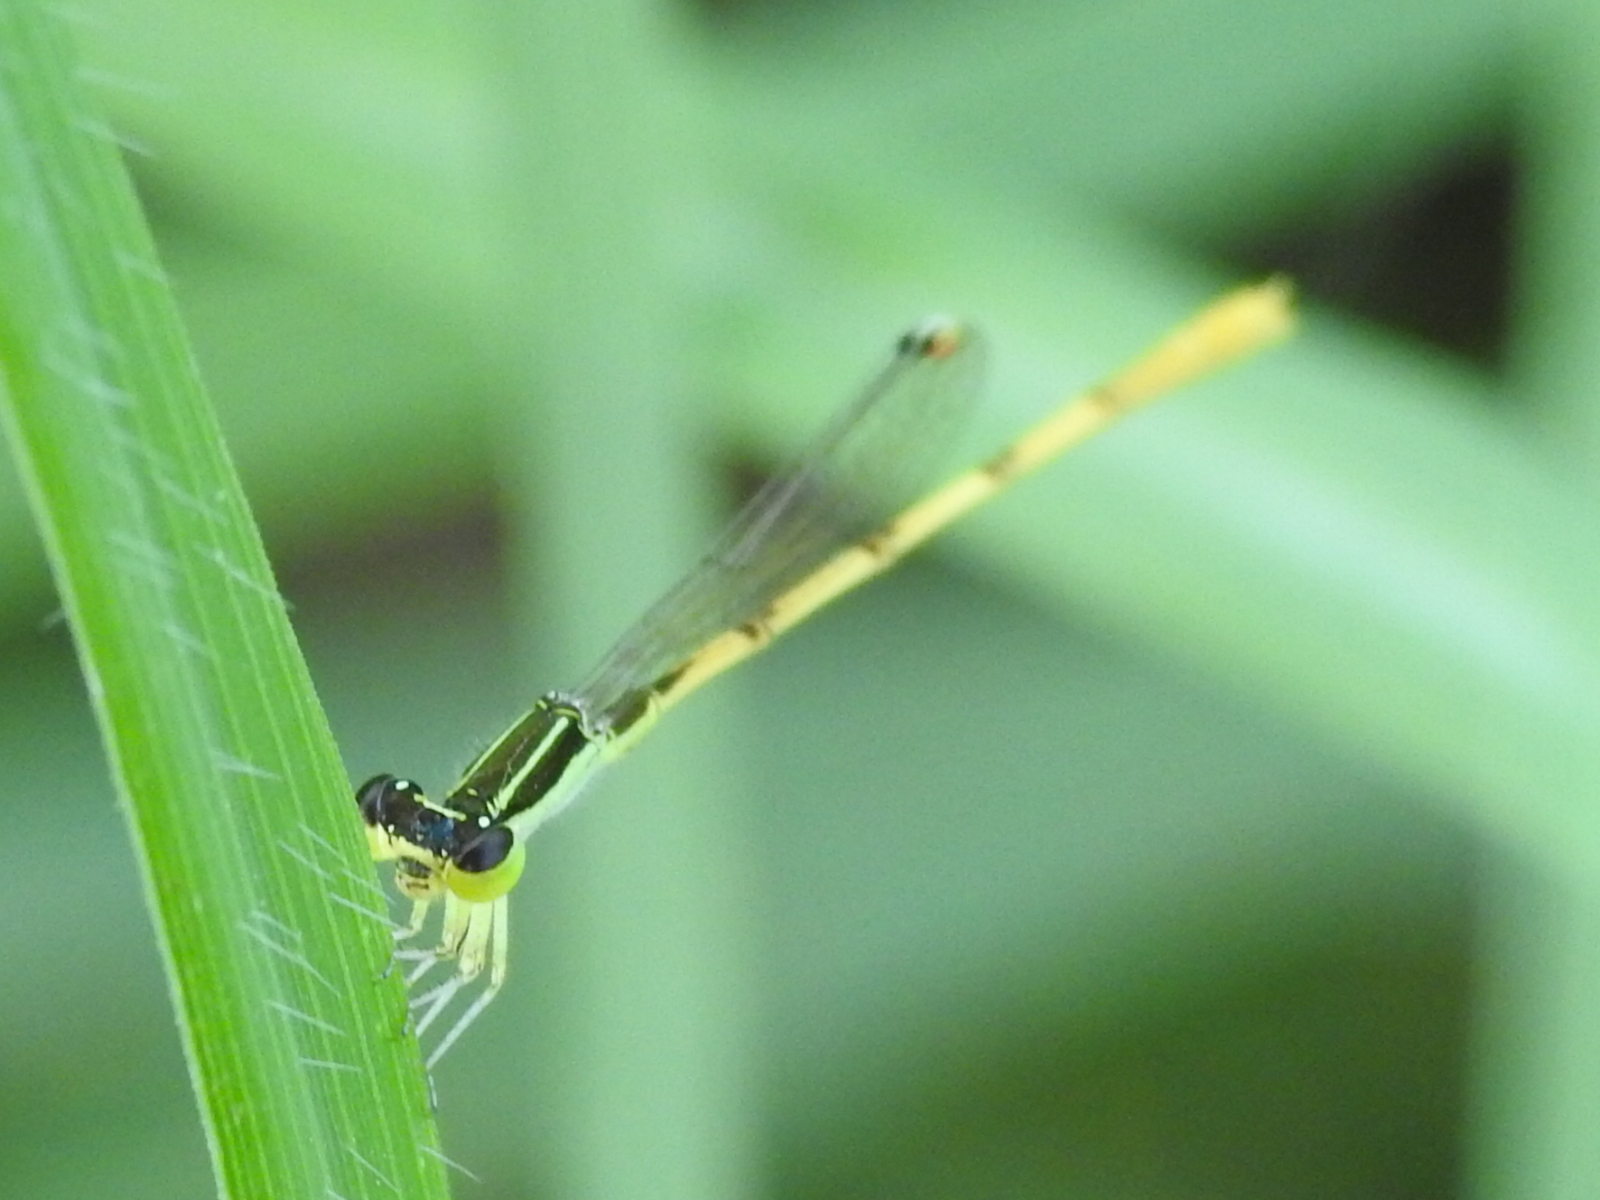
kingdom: Animalia
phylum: Arthropoda
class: Insecta
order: Odonata
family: Coenagrionidae
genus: Ischnura
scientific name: Ischnura hastata
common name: Citrine forktail
